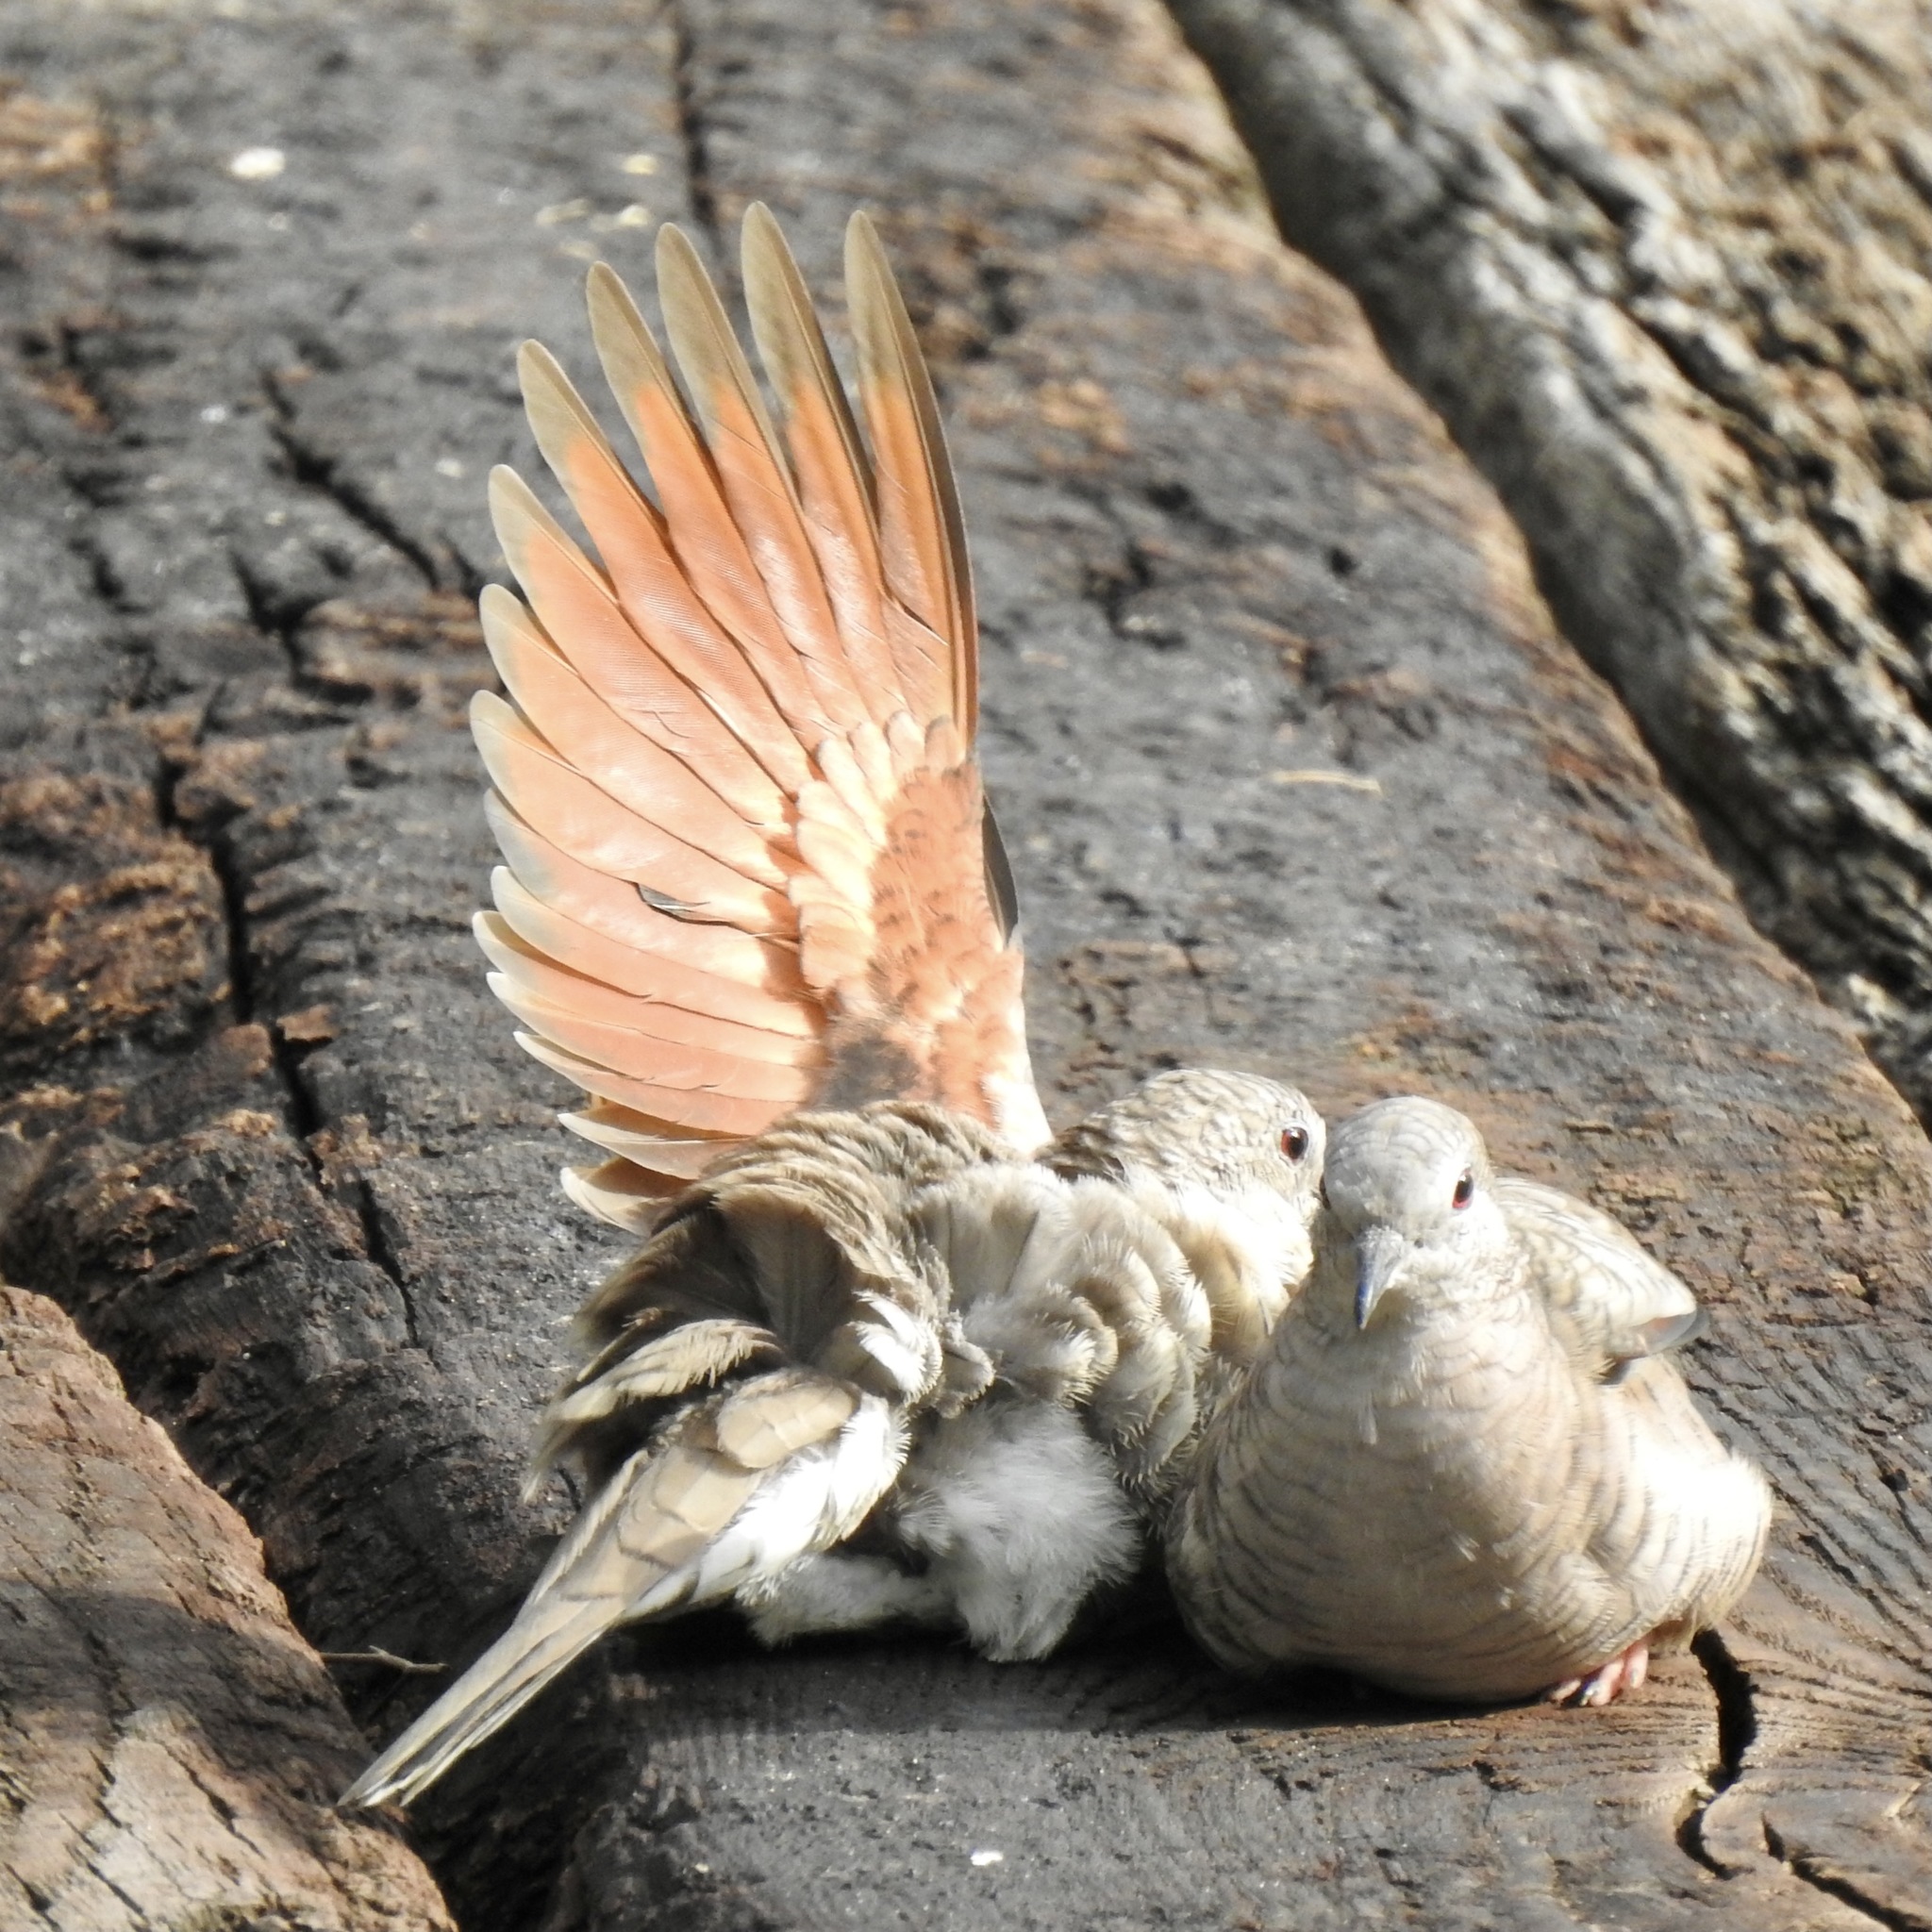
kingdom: Animalia
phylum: Chordata
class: Aves
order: Columbiformes
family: Columbidae
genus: Columbina
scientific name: Columbina inca
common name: Inca dove
